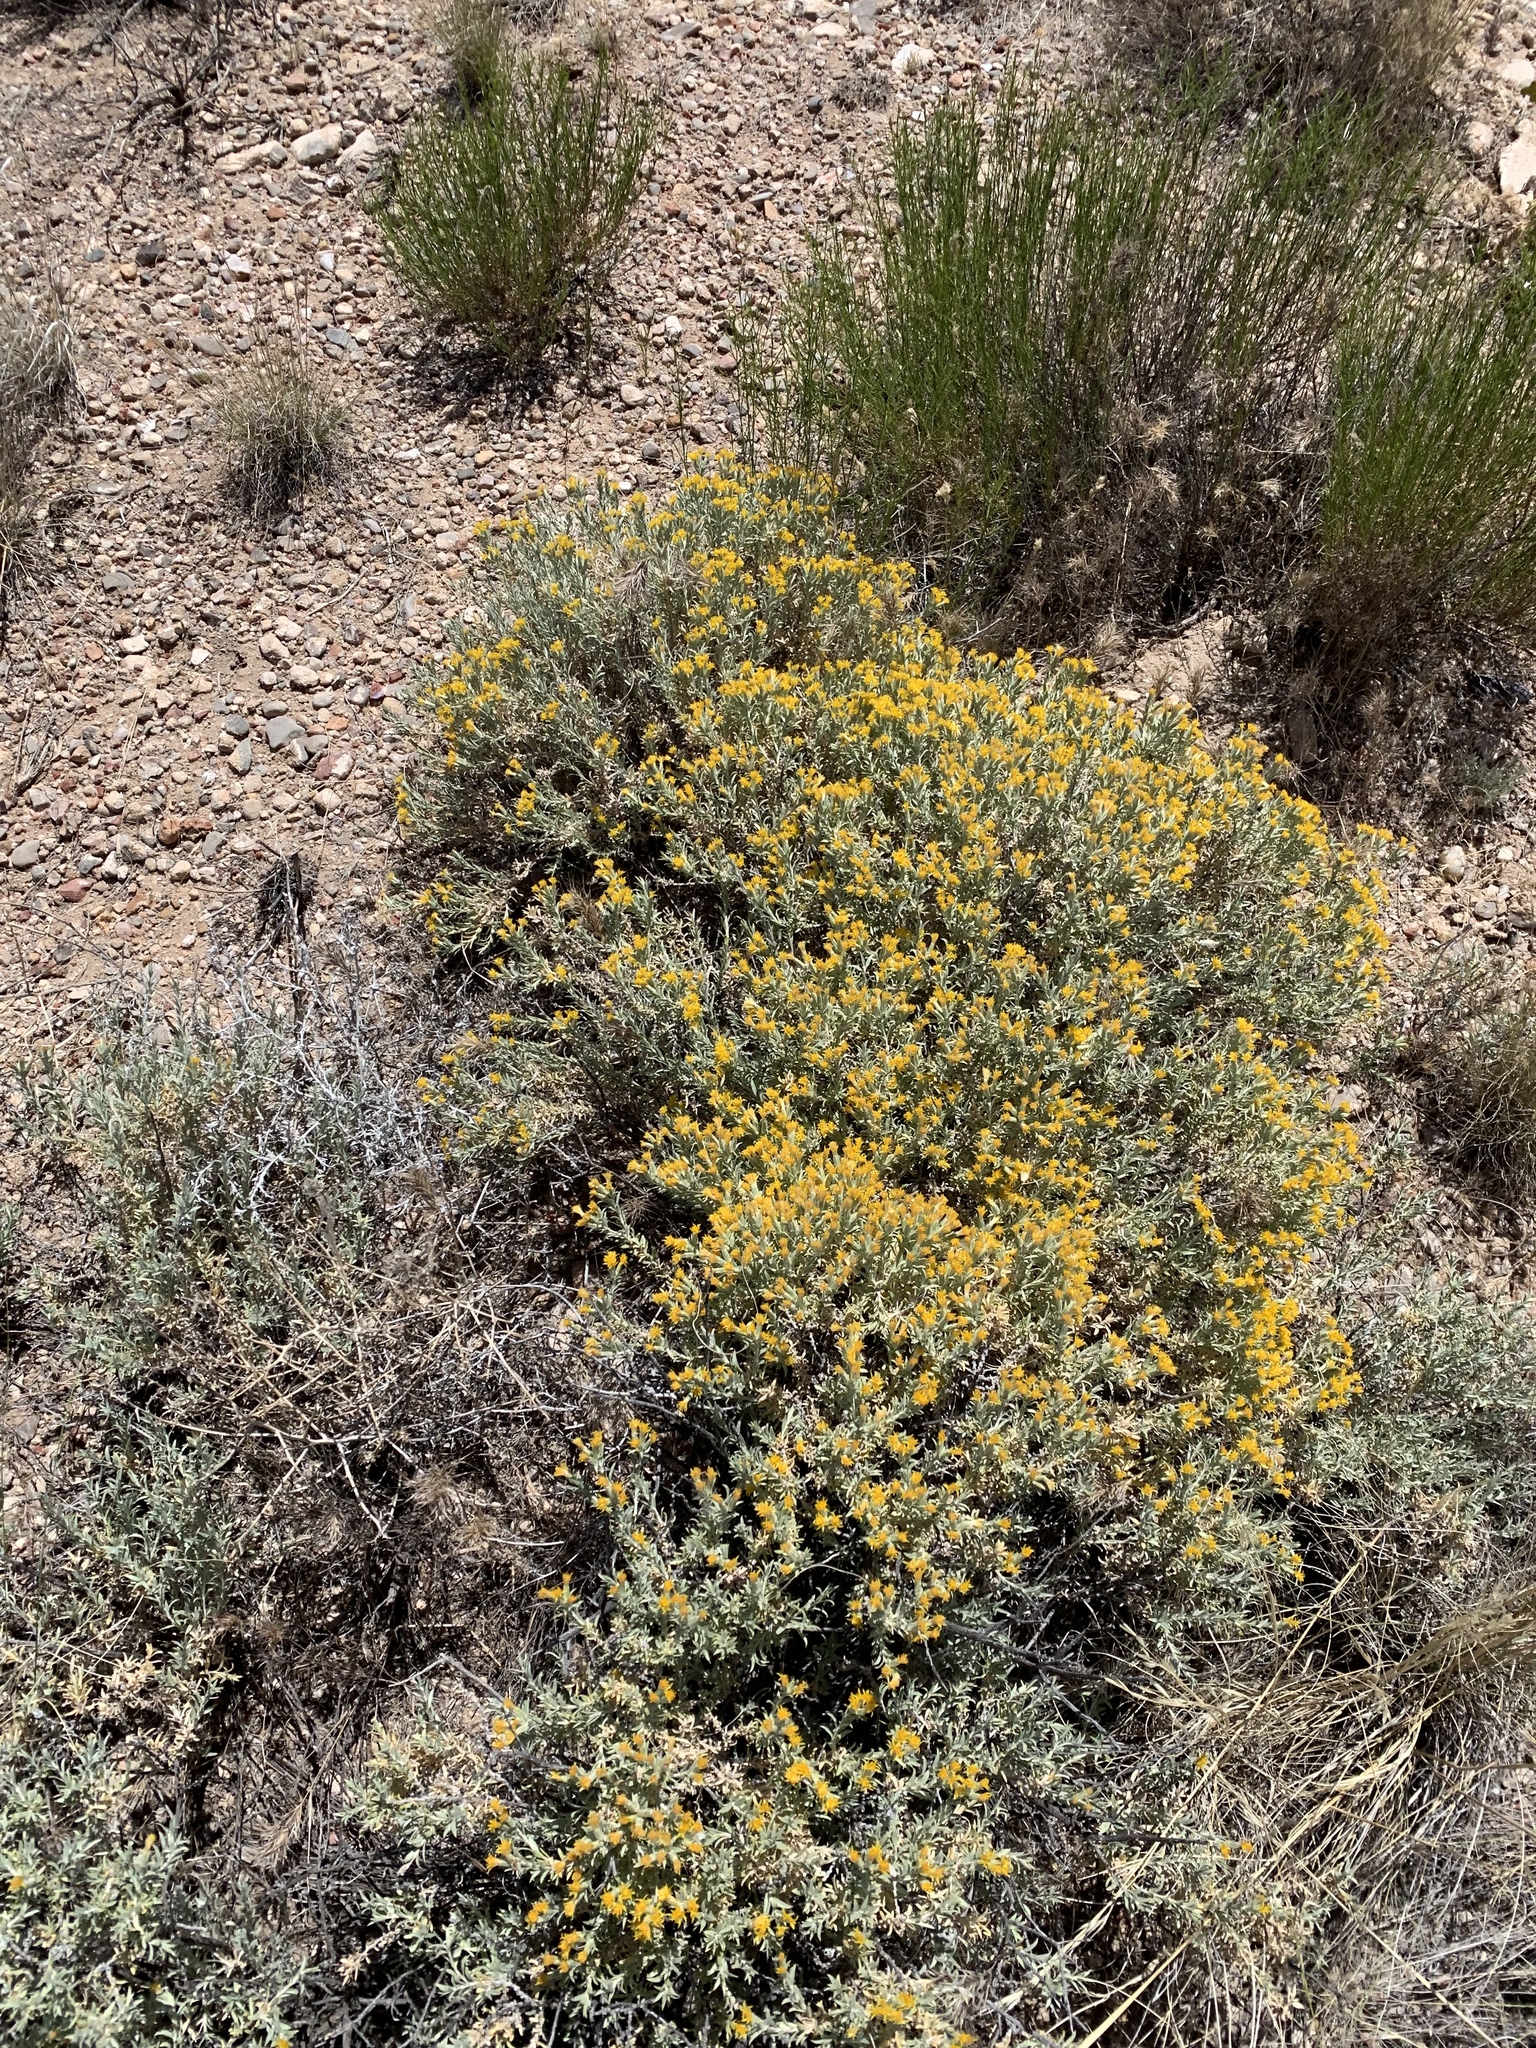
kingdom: Plantae
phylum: Tracheophyta
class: Magnoliopsida
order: Asterales
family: Asteraceae
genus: Tetradymia
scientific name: Tetradymia canescens
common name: Spineless horsebrush
